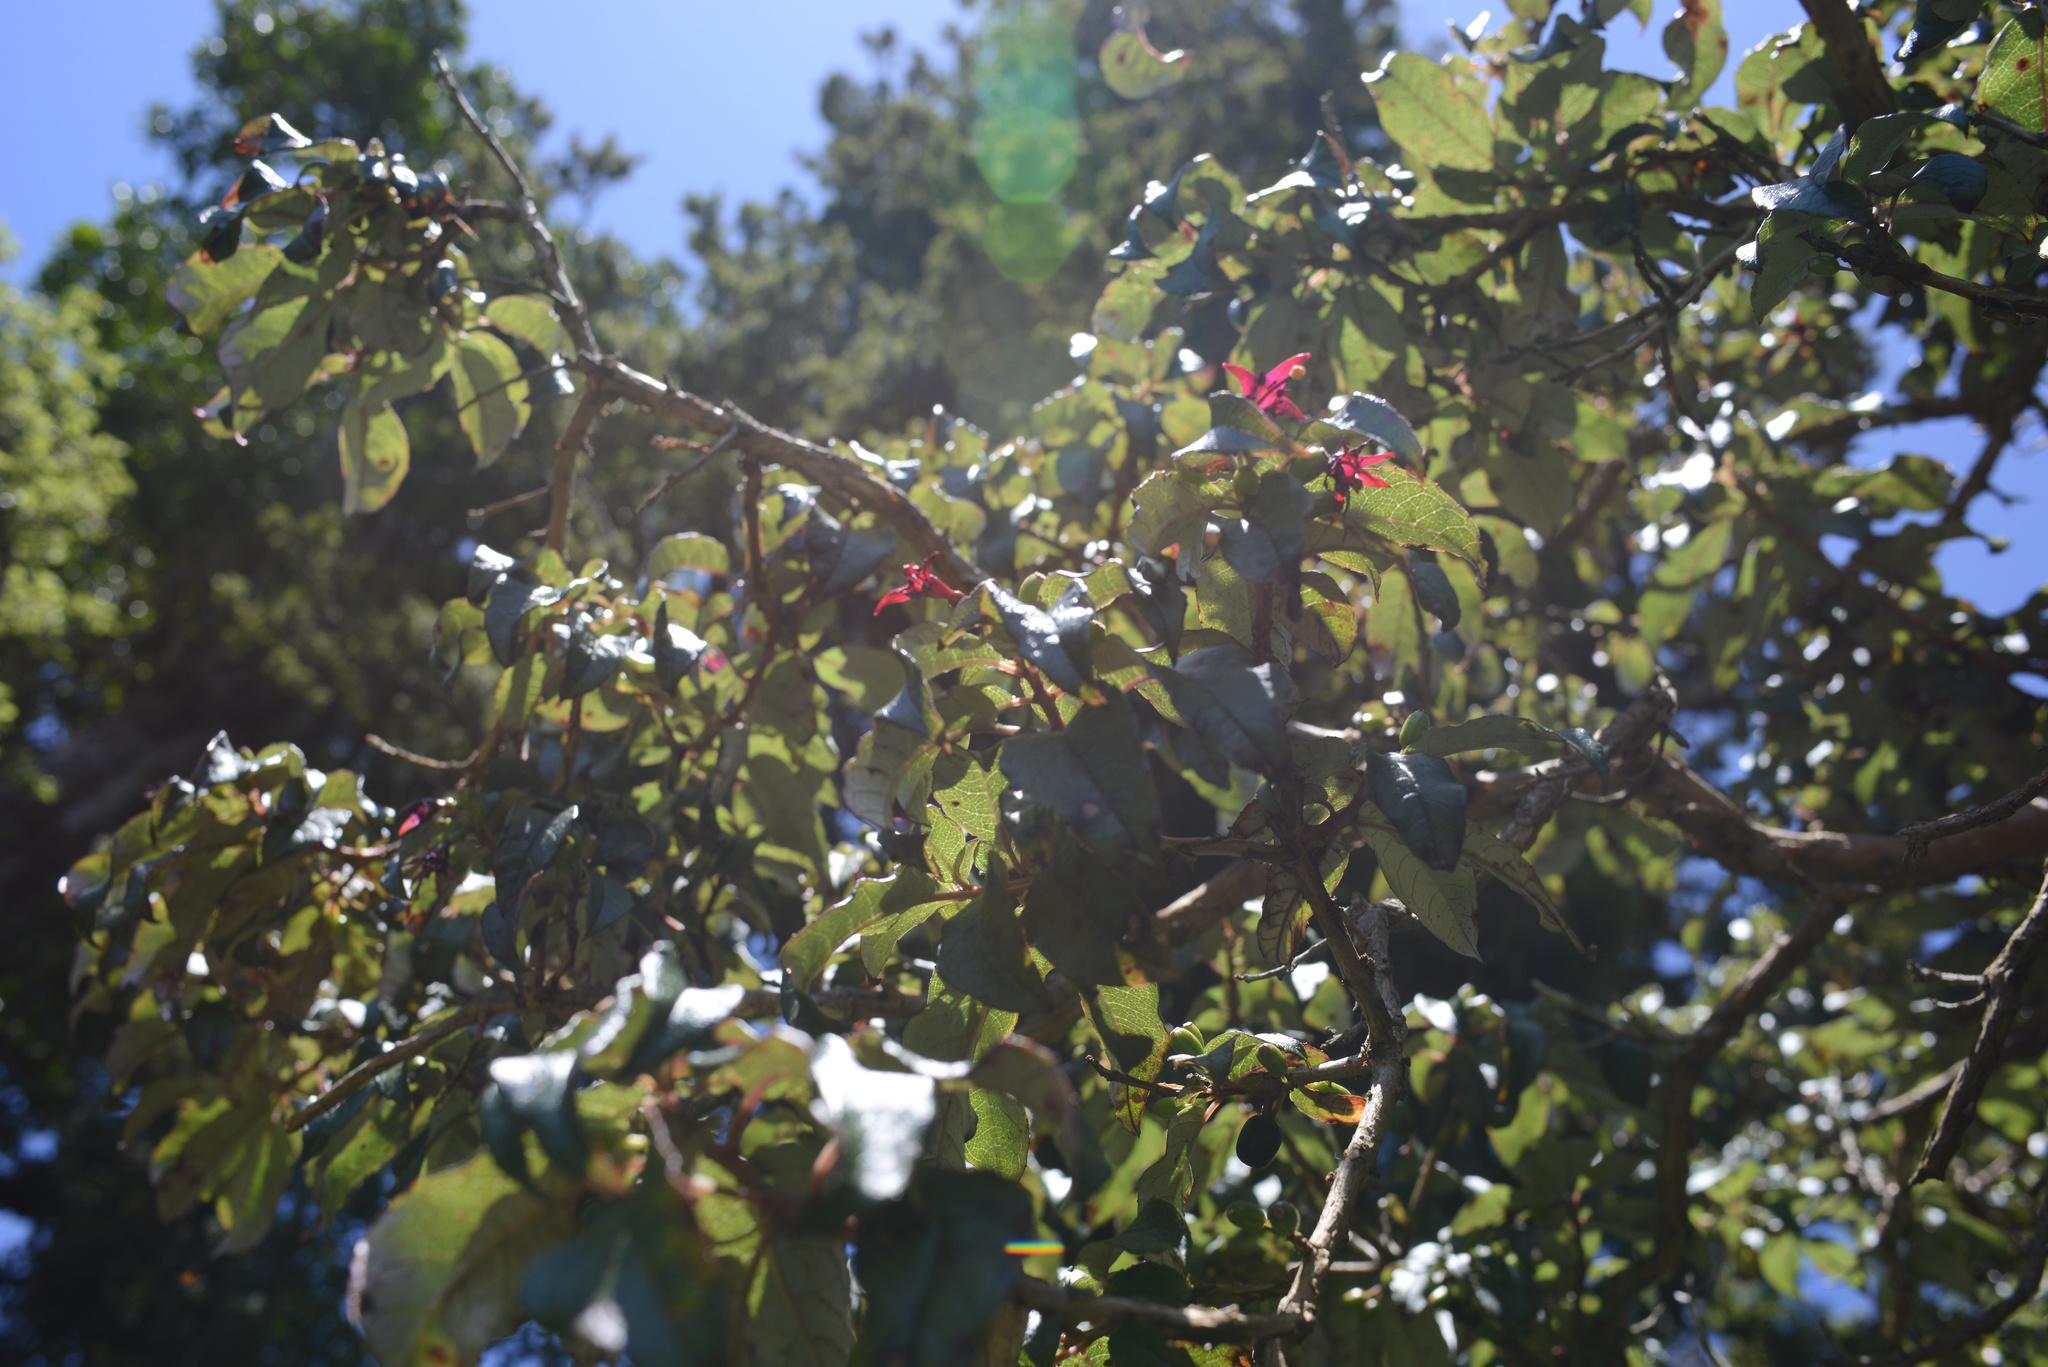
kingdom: Plantae
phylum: Tracheophyta
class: Magnoliopsida
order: Myrtales
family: Onagraceae
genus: Fuchsia
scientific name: Fuchsia excorticata
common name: Tree fuchsia
